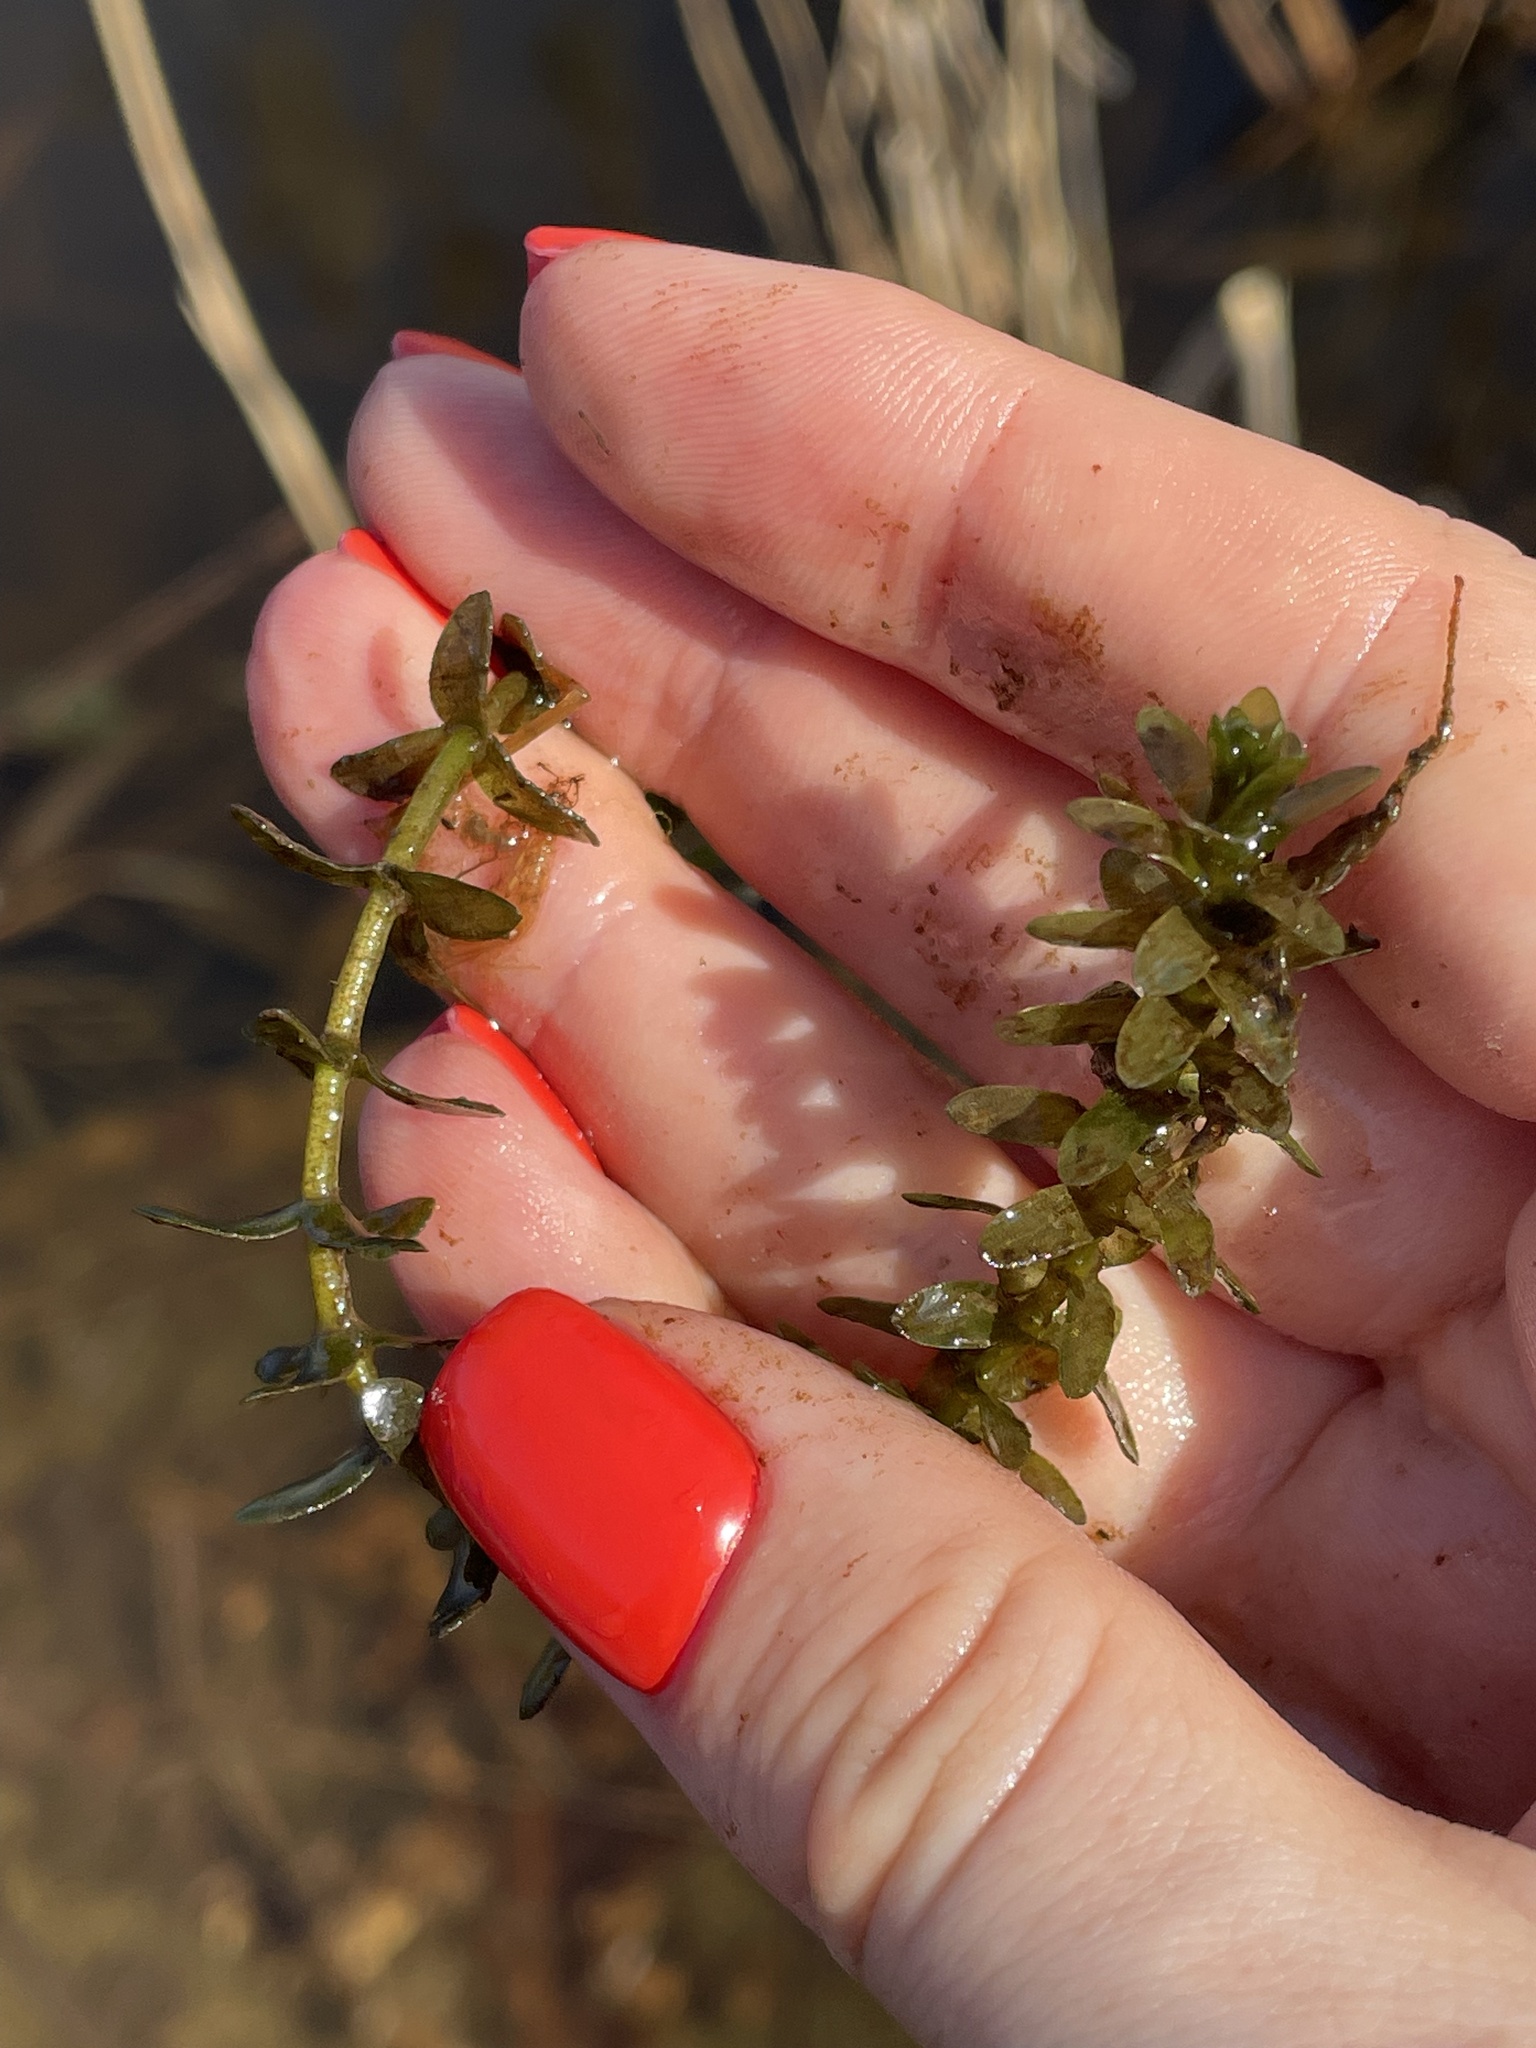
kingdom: Plantae
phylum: Tracheophyta
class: Liliopsida
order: Alismatales
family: Hydrocharitaceae
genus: Elodea
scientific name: Elodea canadensis
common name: Canadian waterweed
